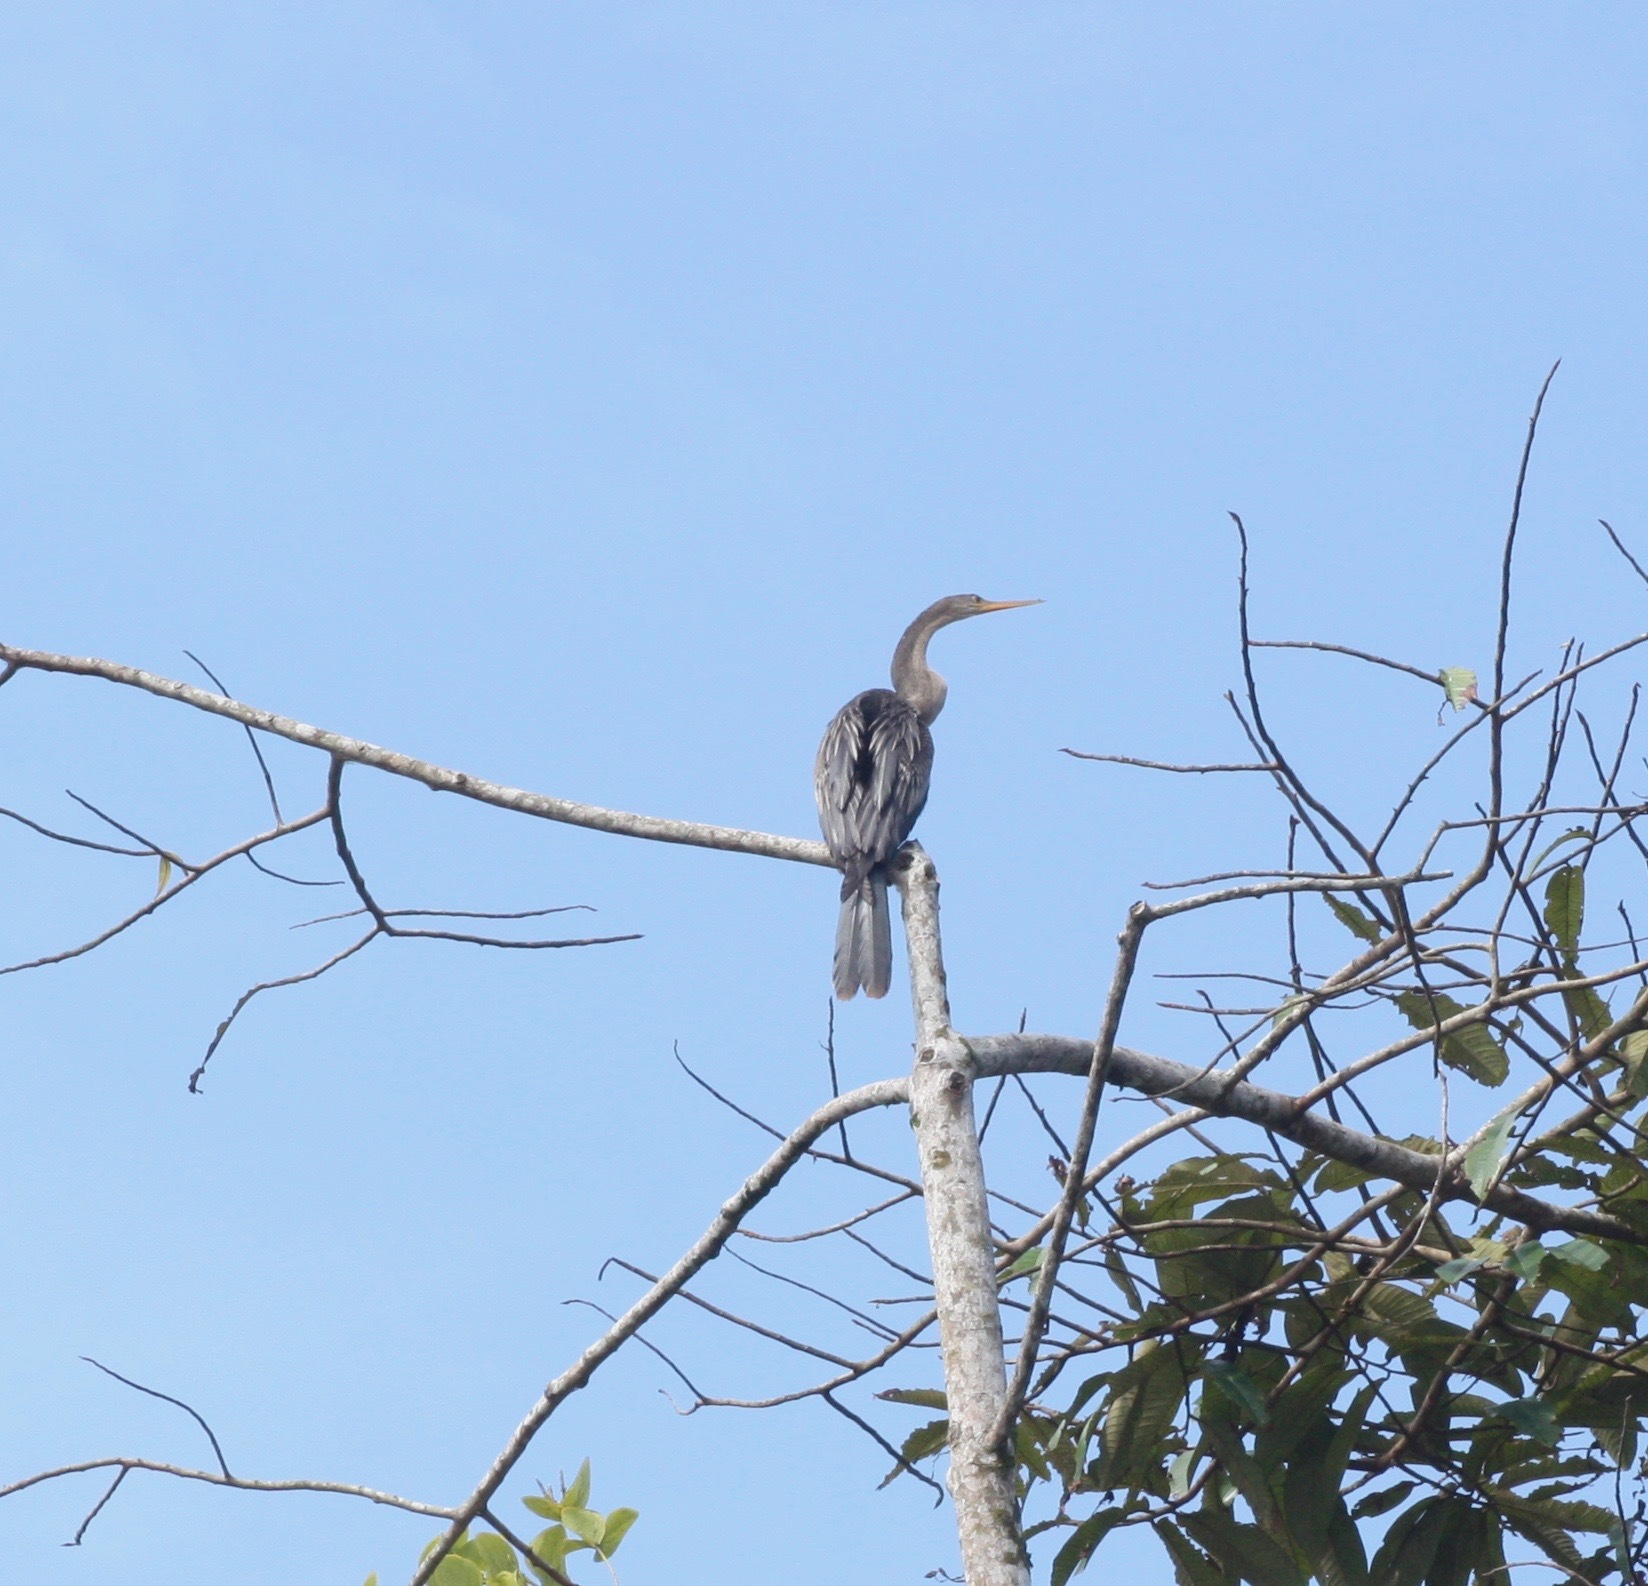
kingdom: Animalia
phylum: Chordata
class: Aves
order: Suliformes
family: Anhingidae
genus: Anhinga
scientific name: Anhinga anhinga
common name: Anhinga
